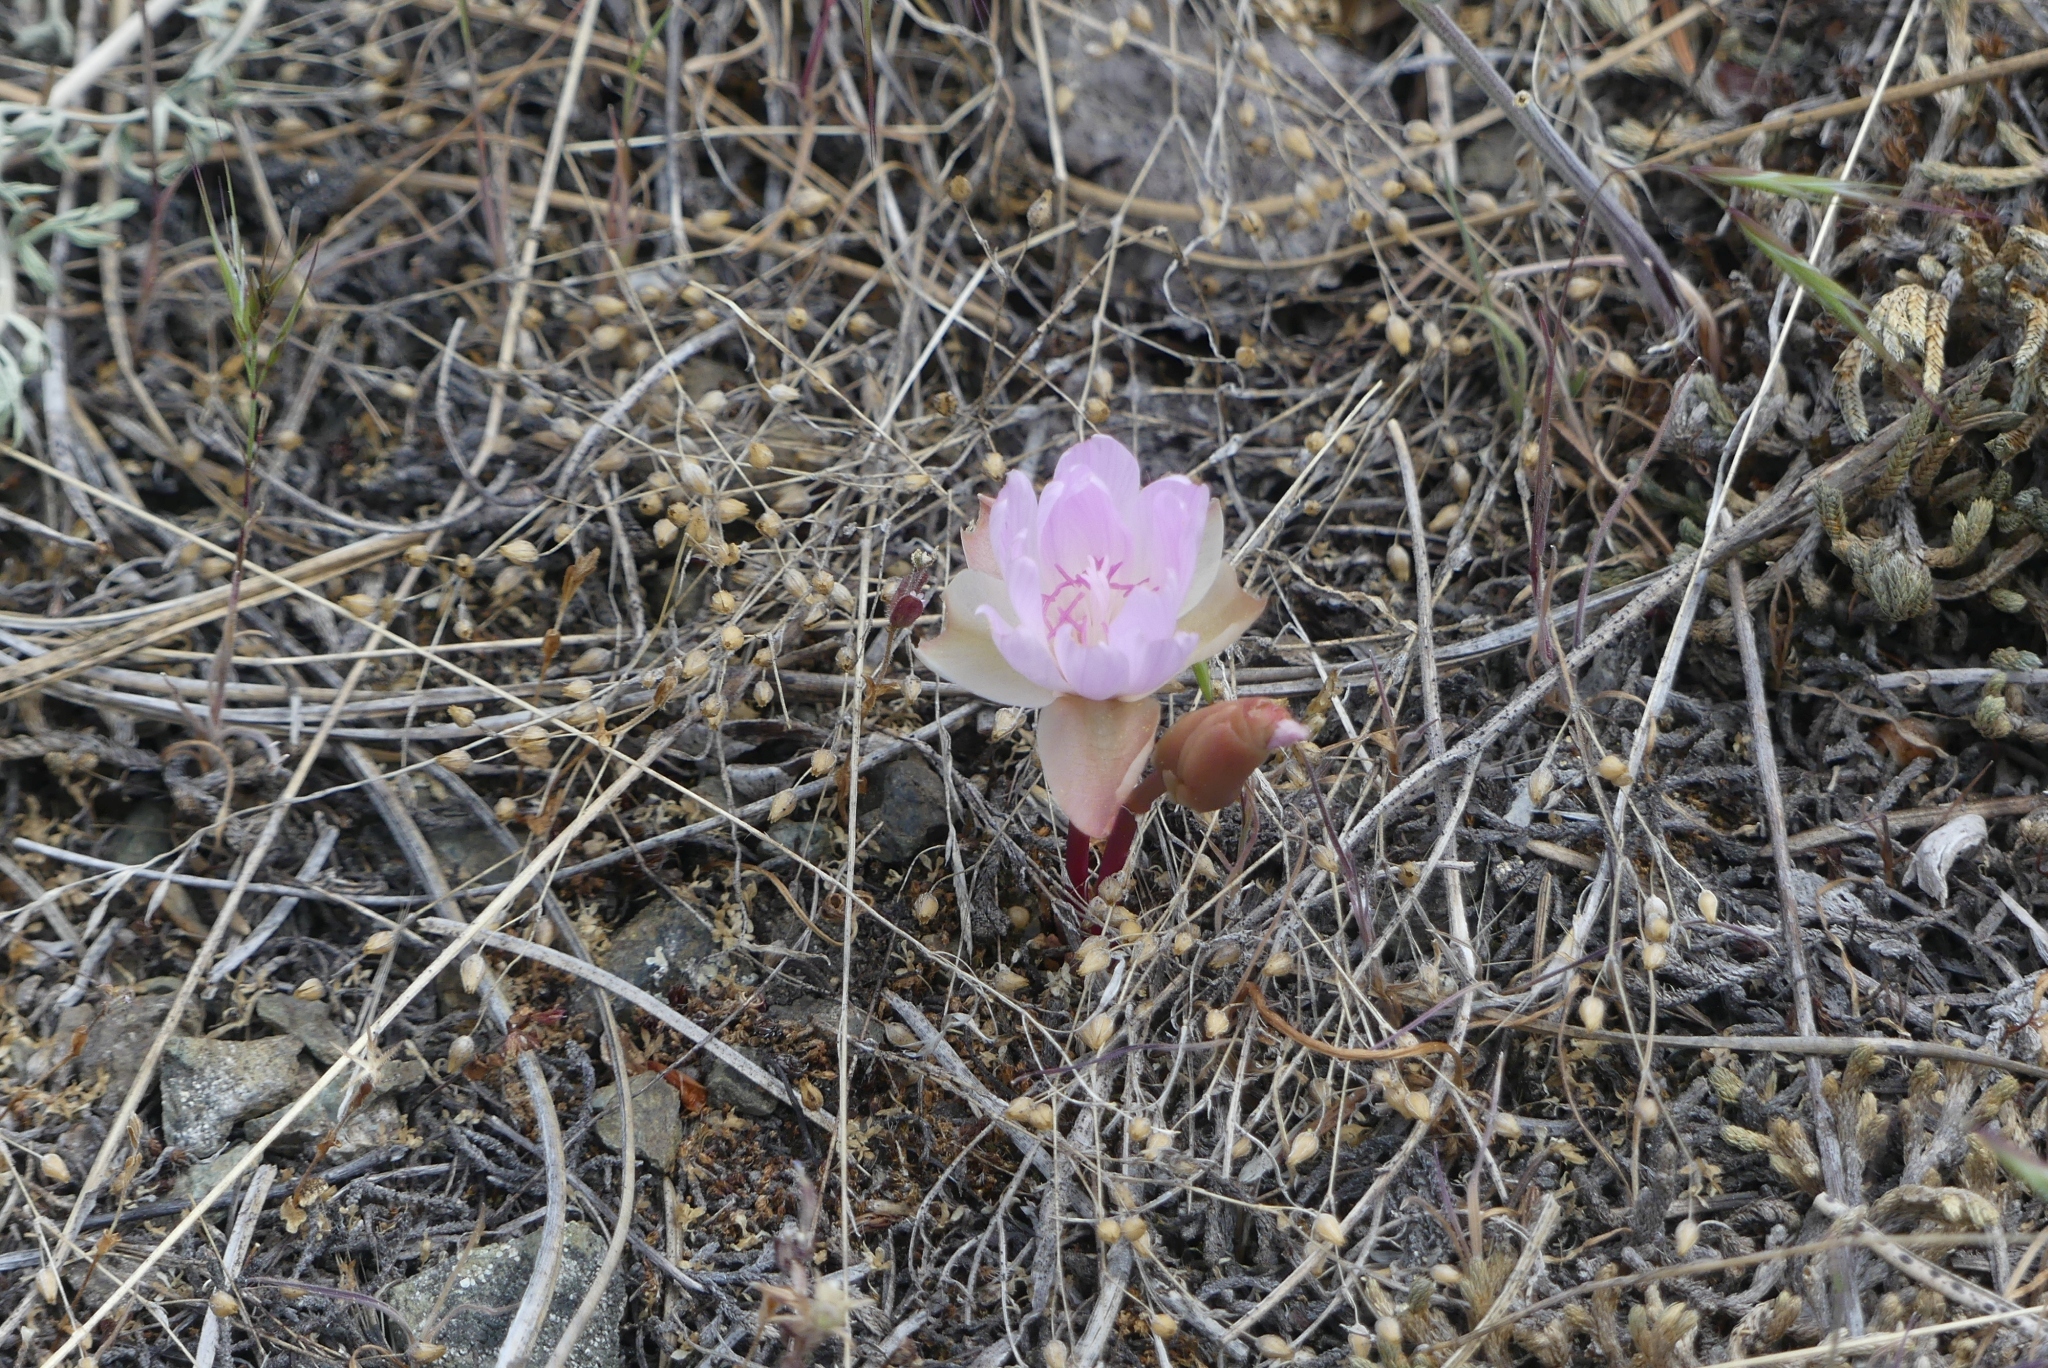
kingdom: Plantae
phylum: Tracheophyta
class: Magnoliopsida
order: Caryophyllales
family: Montiaceae
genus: Lewisia
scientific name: Lewisia rediviva
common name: Bitter-root
